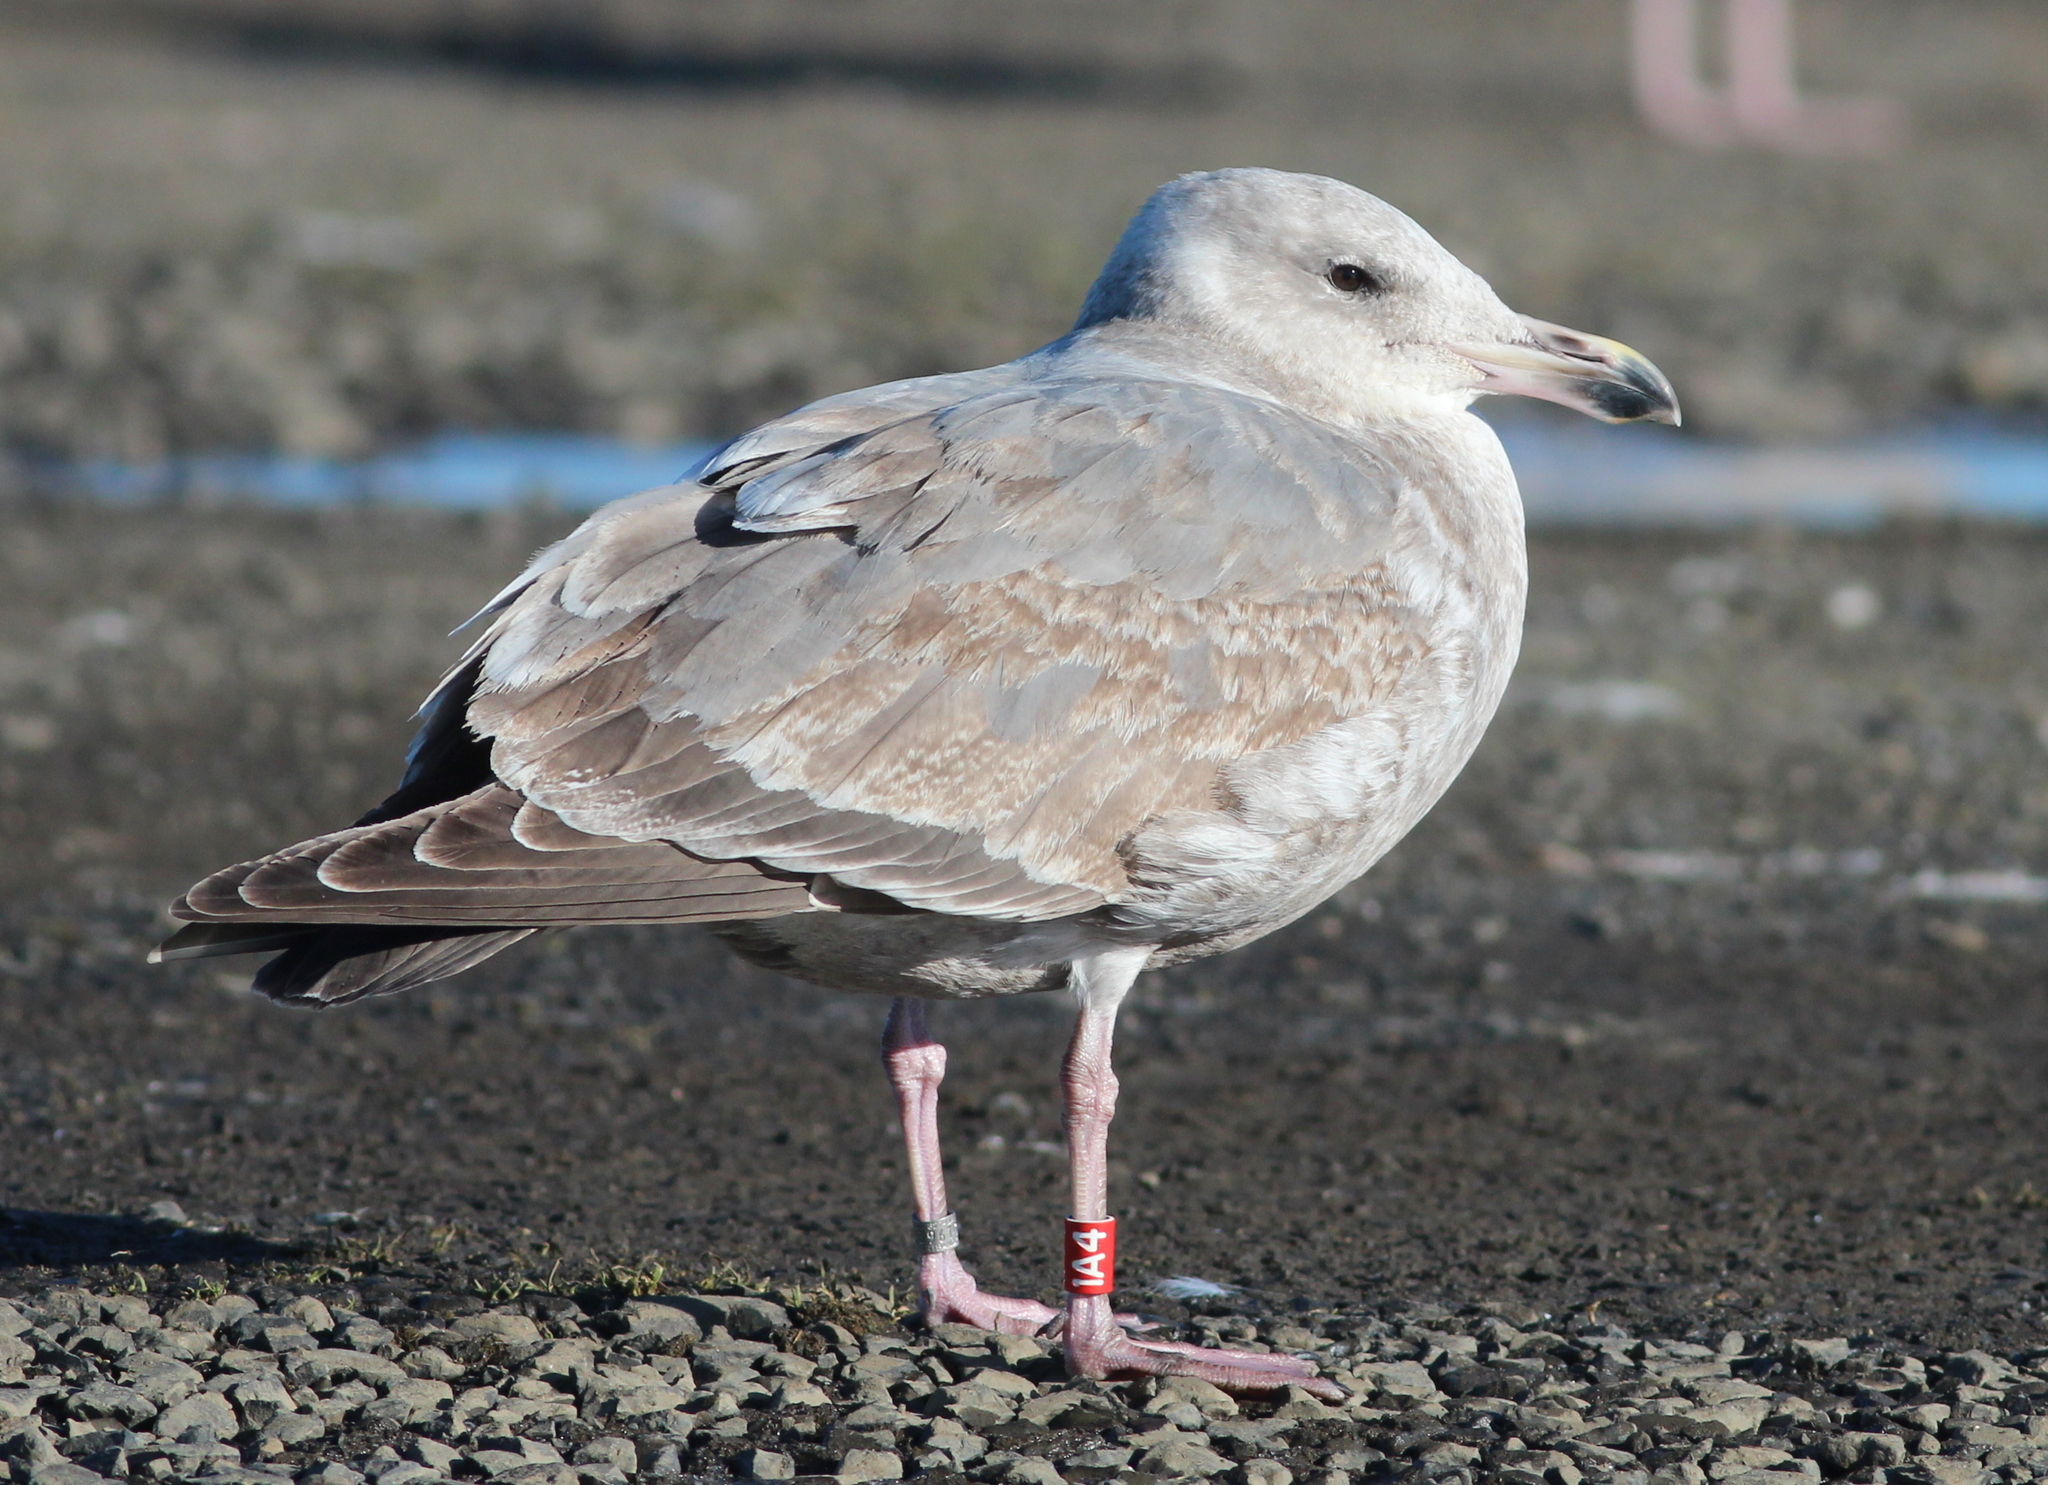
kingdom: Animalia
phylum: Chordata
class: Aves
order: Charadriiformes
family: Laridae
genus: Larus
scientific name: Larus
